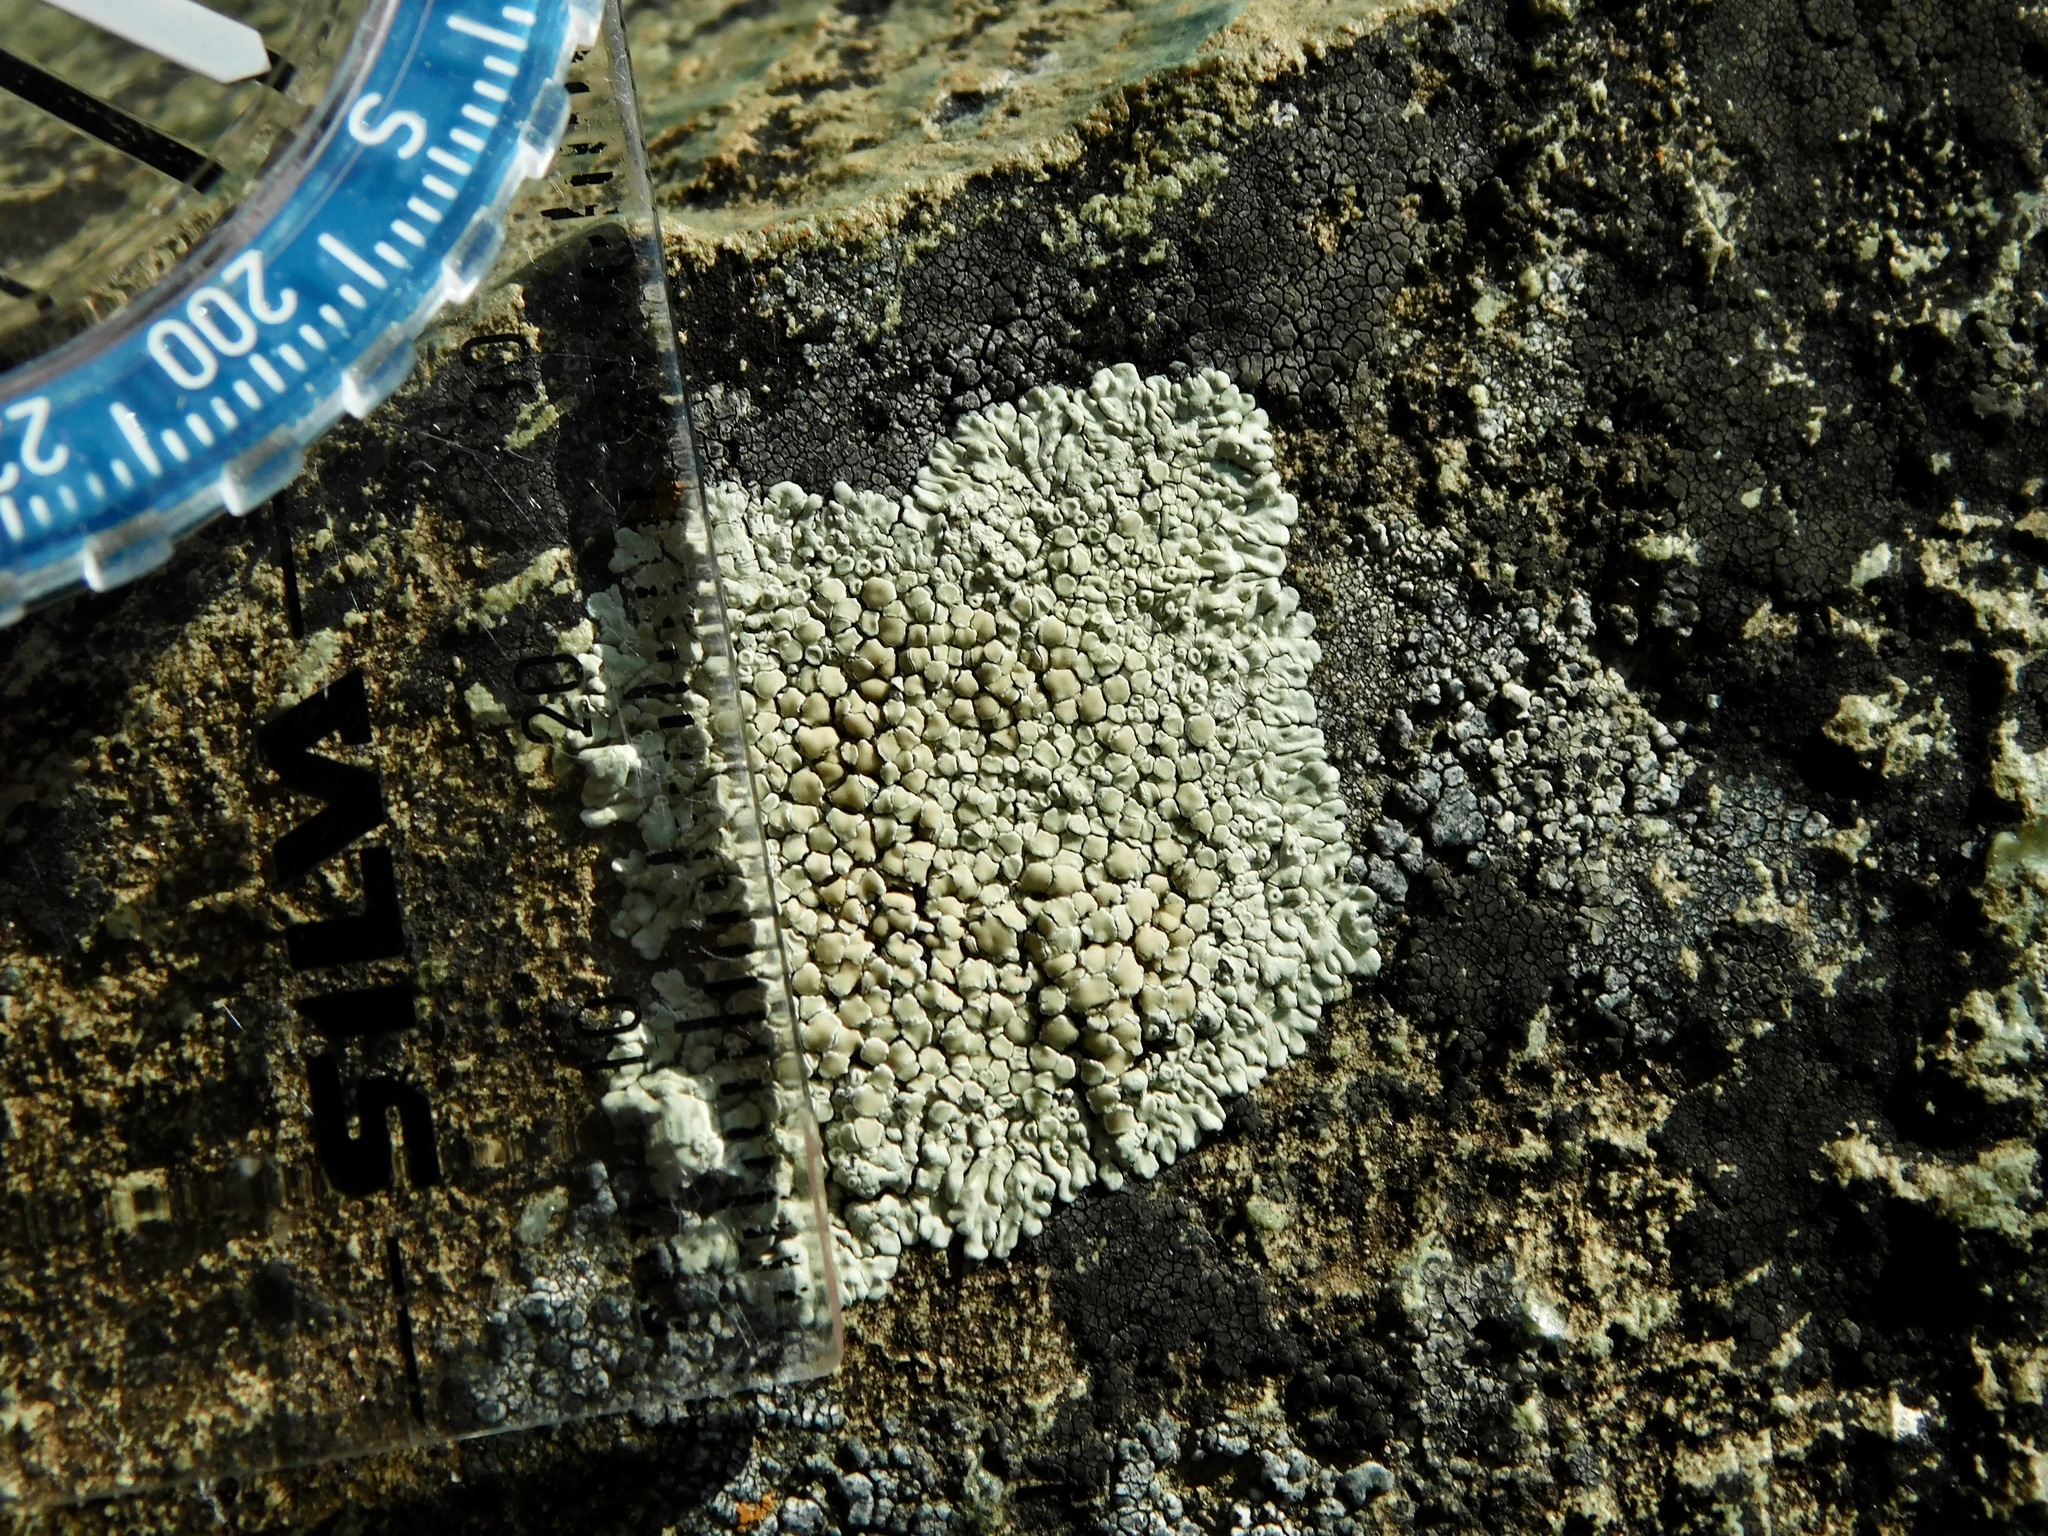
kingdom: Fungi
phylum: Ascomycota
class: Lecanoromycetes
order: Lecanorales
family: Lecanoraceae
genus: Protoparmeliopsis
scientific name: Protoparmeliopsis muralis
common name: Stonewall rim lichen
